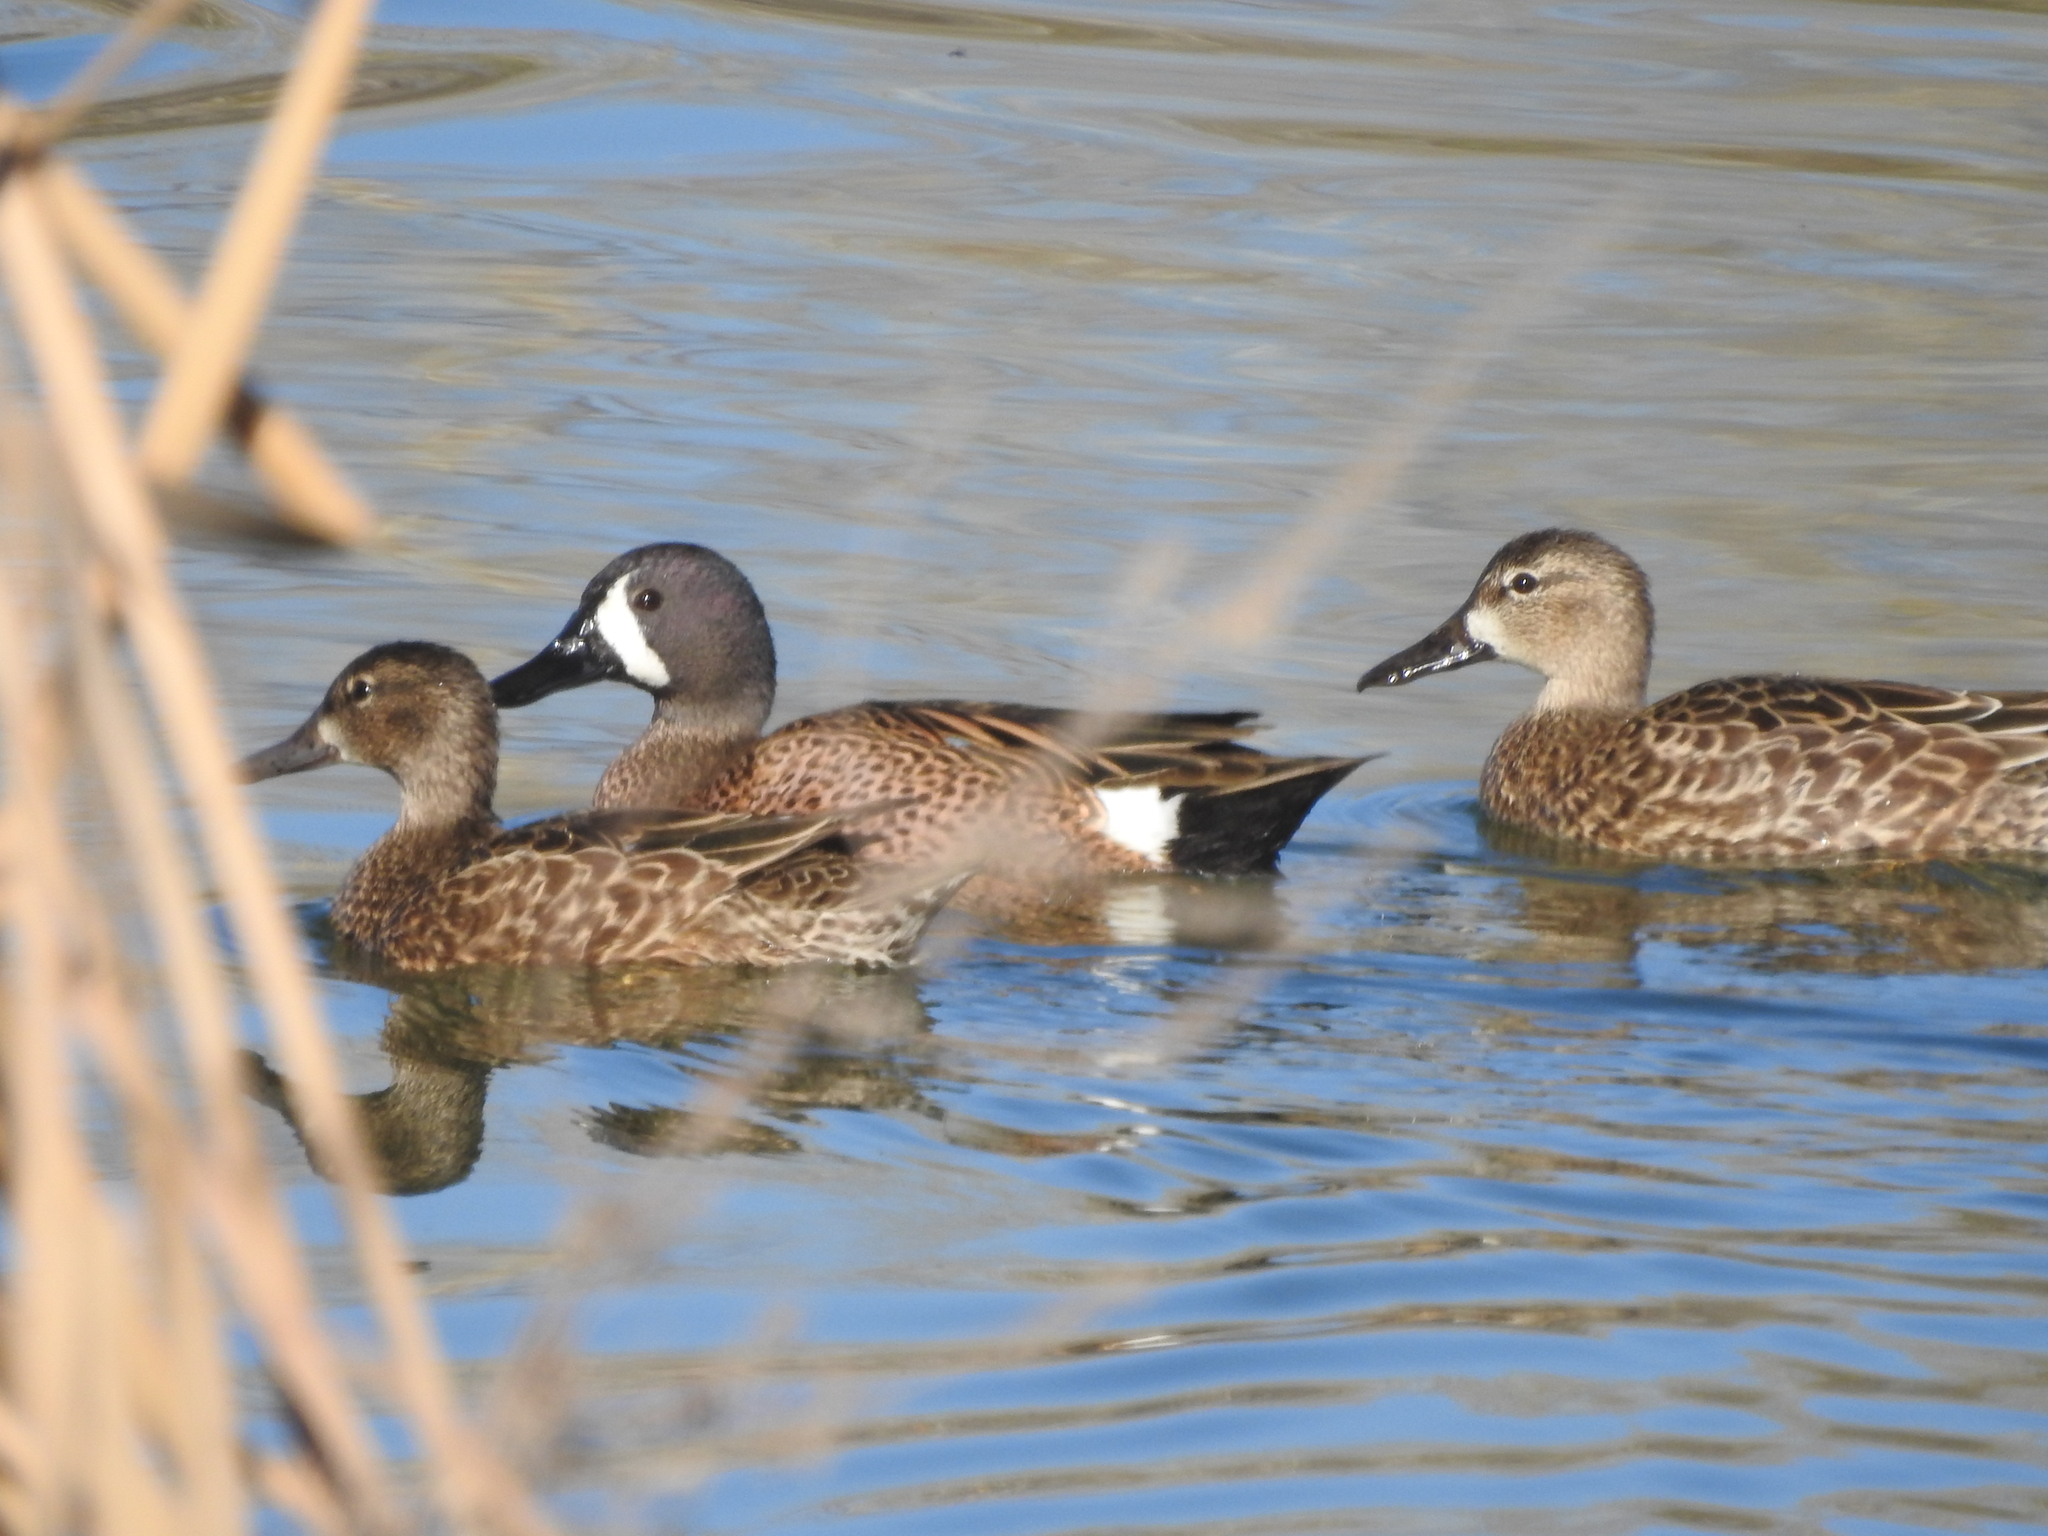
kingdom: Animalia
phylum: Chordata
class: Aves
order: Anseriformes
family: Anatidae
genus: Spatula
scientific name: Spatula discors
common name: Blue-winged teal
